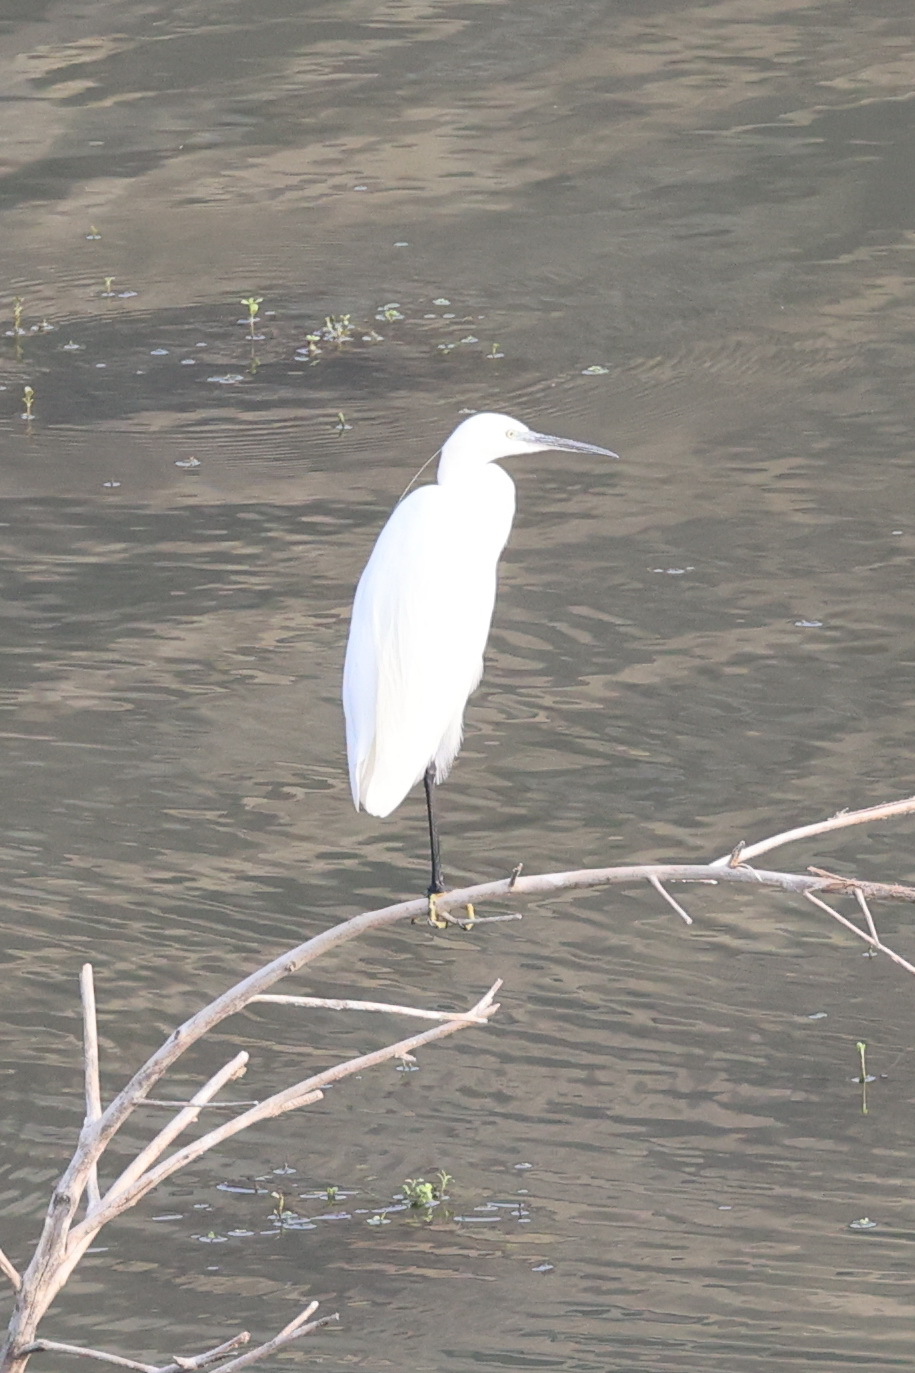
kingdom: Animalia
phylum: Chordata
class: Aves
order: Pelecaniformes
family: Ardeidae
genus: Egretta
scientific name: Egretta garzetta
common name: Little egret
